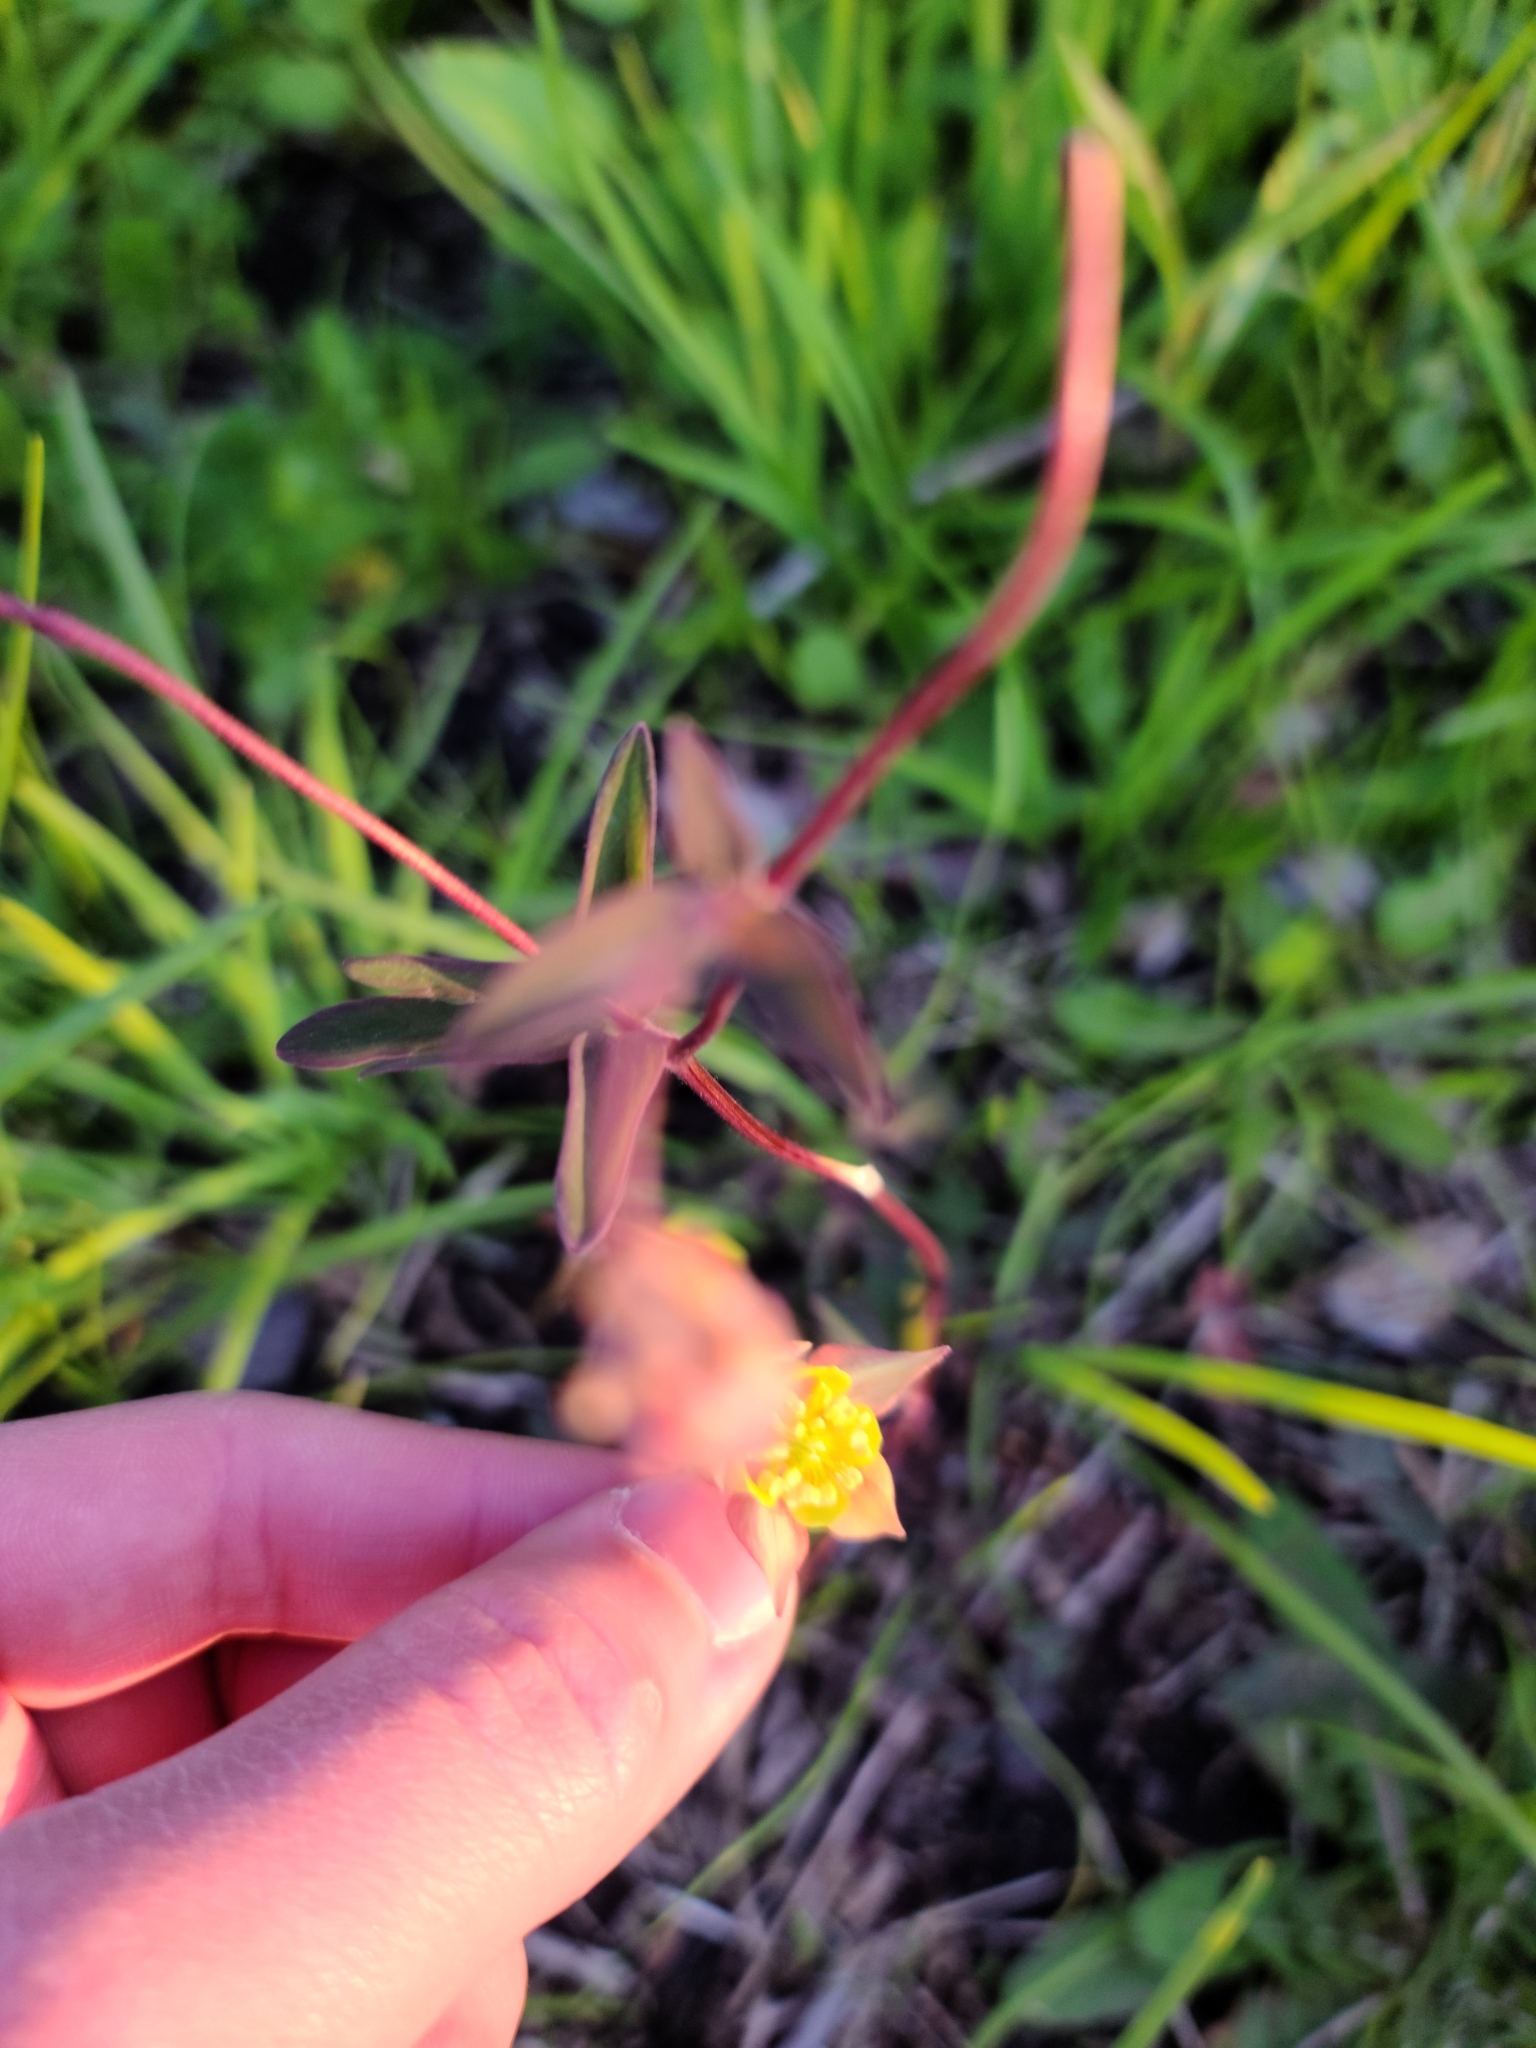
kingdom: Plantae
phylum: Tracheophyta
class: Magnoliopsida
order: Ranunculales
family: Ranunculaceae
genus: Aquilegia
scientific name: Aquilegia canadensis
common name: American columbine
